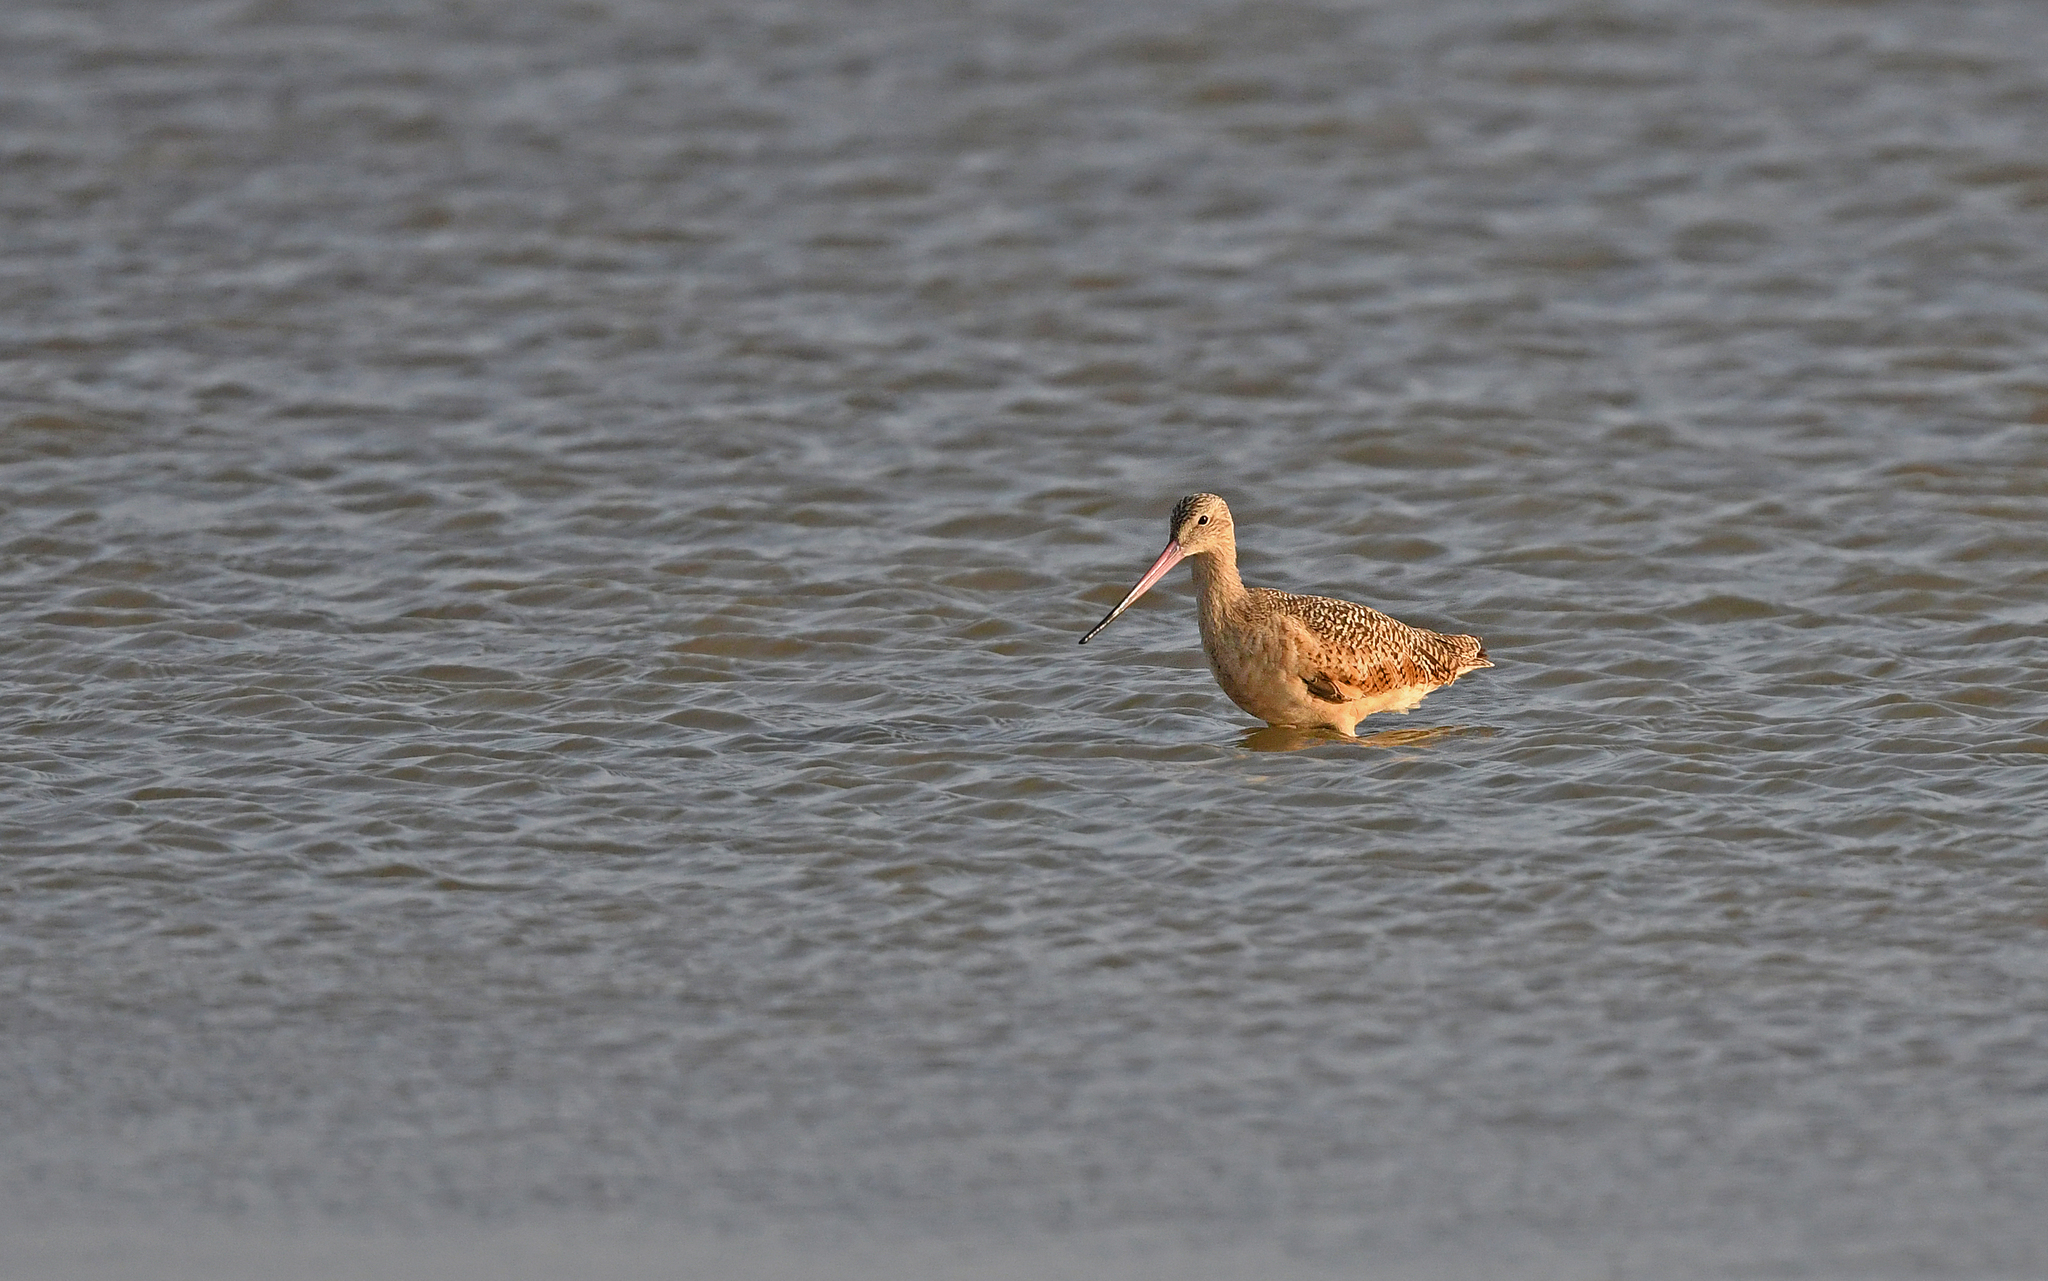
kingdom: Animalia
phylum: Chordata
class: Aves
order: Charadriiformes
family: Scolopacidae
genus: Limosa
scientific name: Limosa fedoa
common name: Marbled godwit
